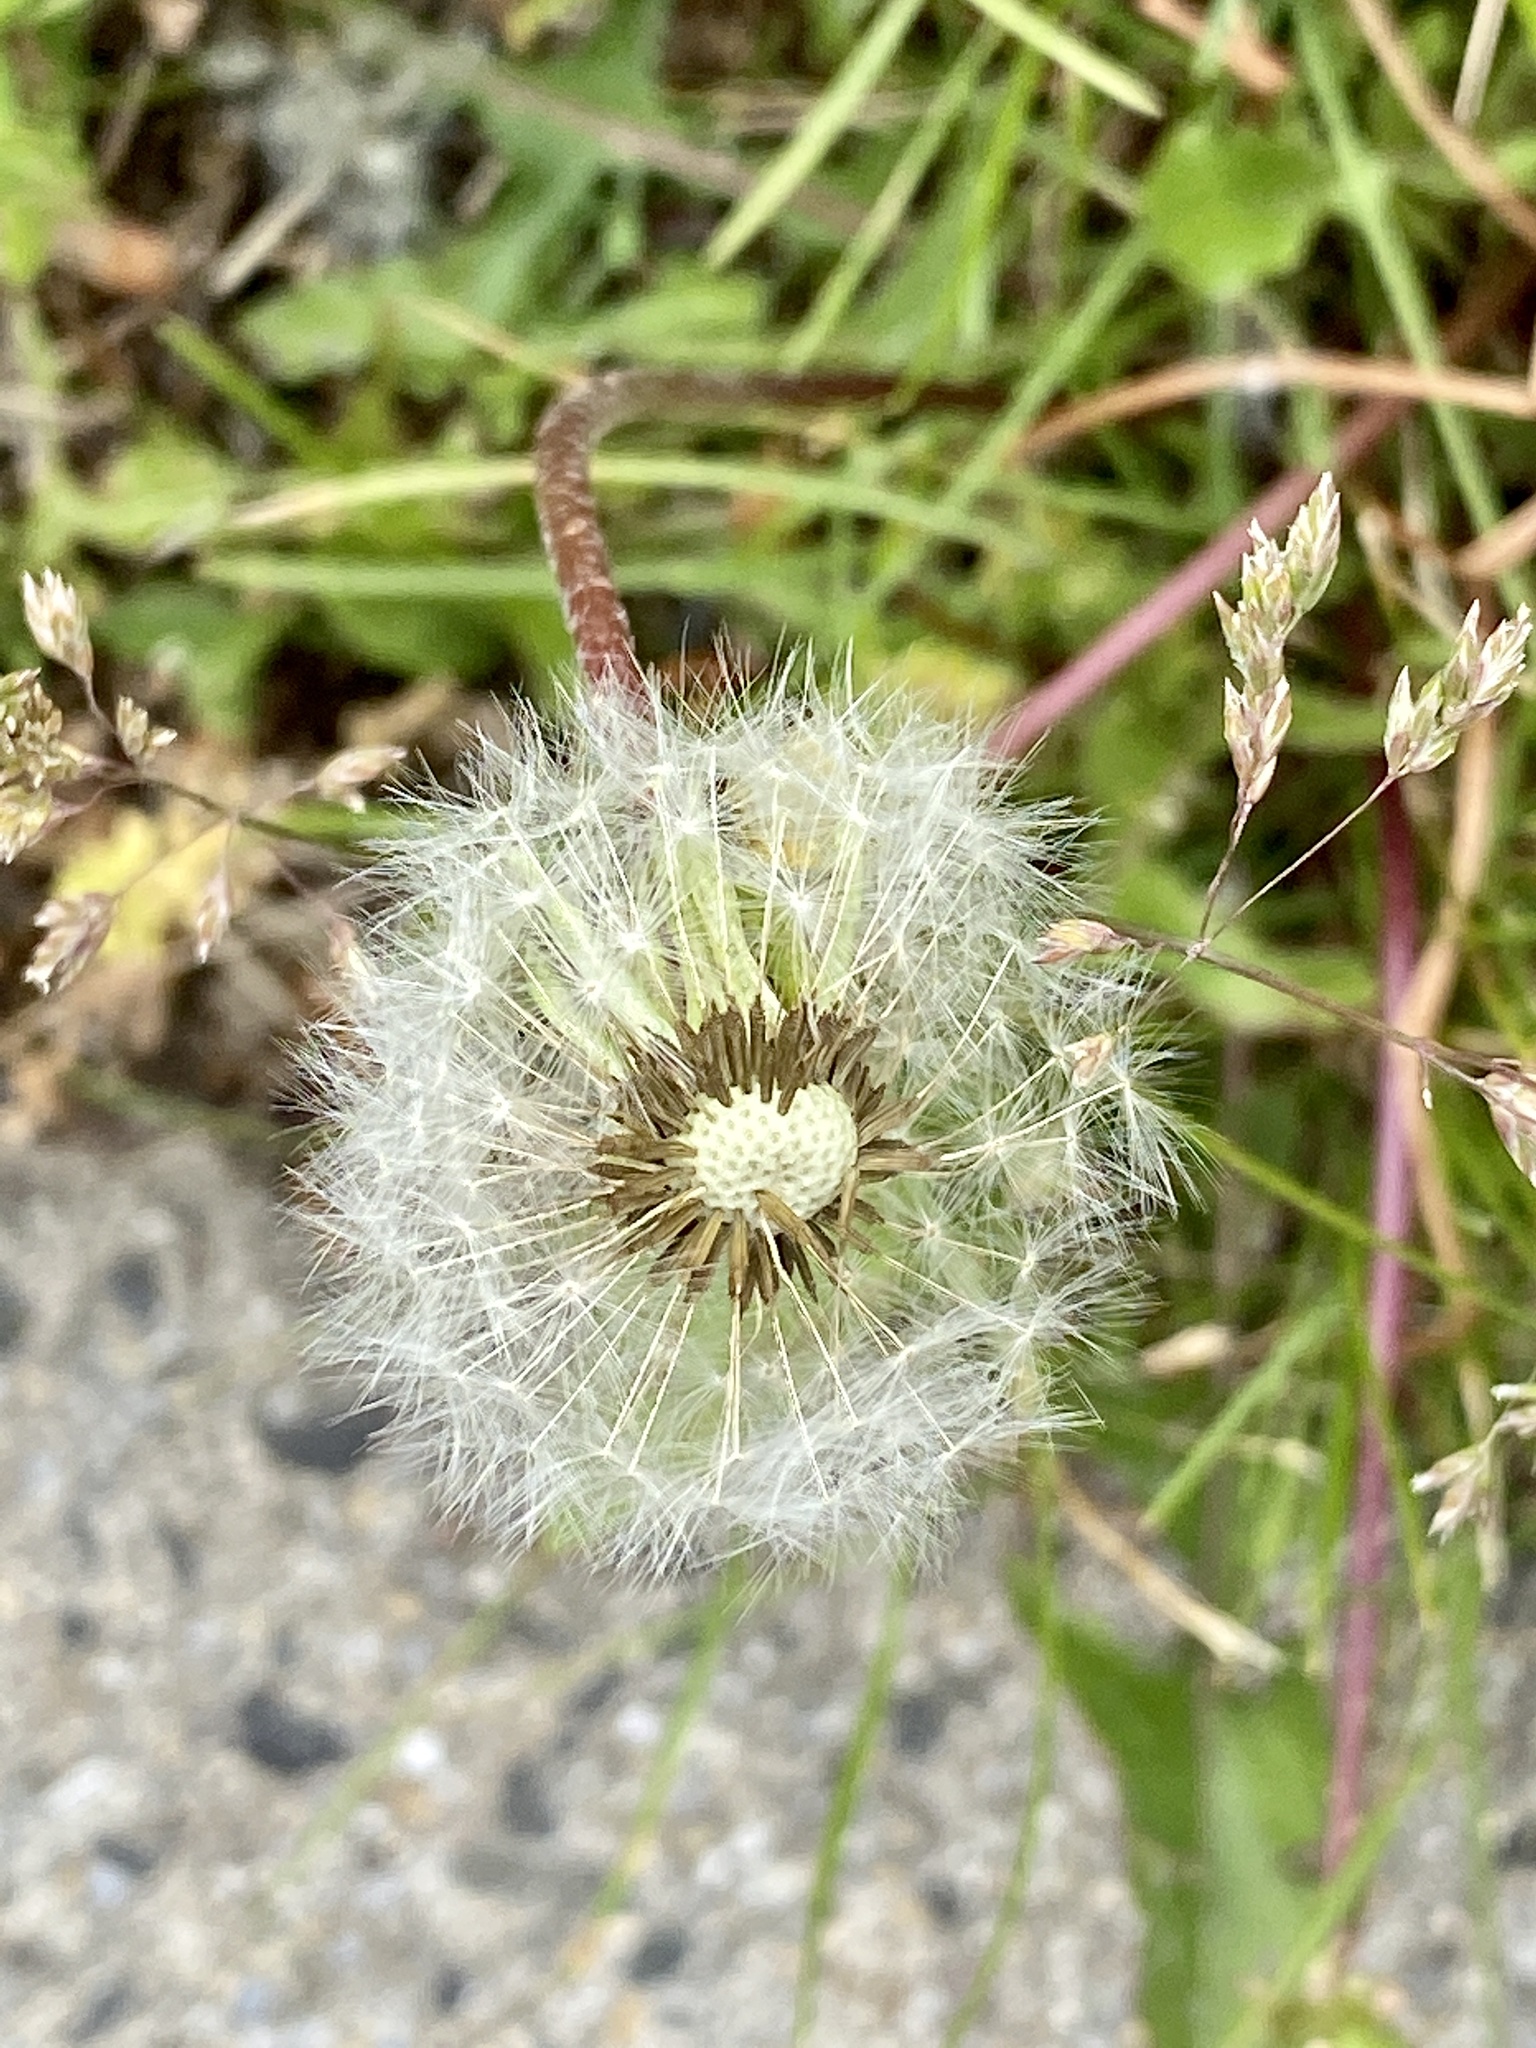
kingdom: Plantae
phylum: Tracheophyta
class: Magnoliopsida
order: Asterales
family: Asteraceae
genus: Taraxacum
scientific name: Taraxacum officinale
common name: Common dandelion
